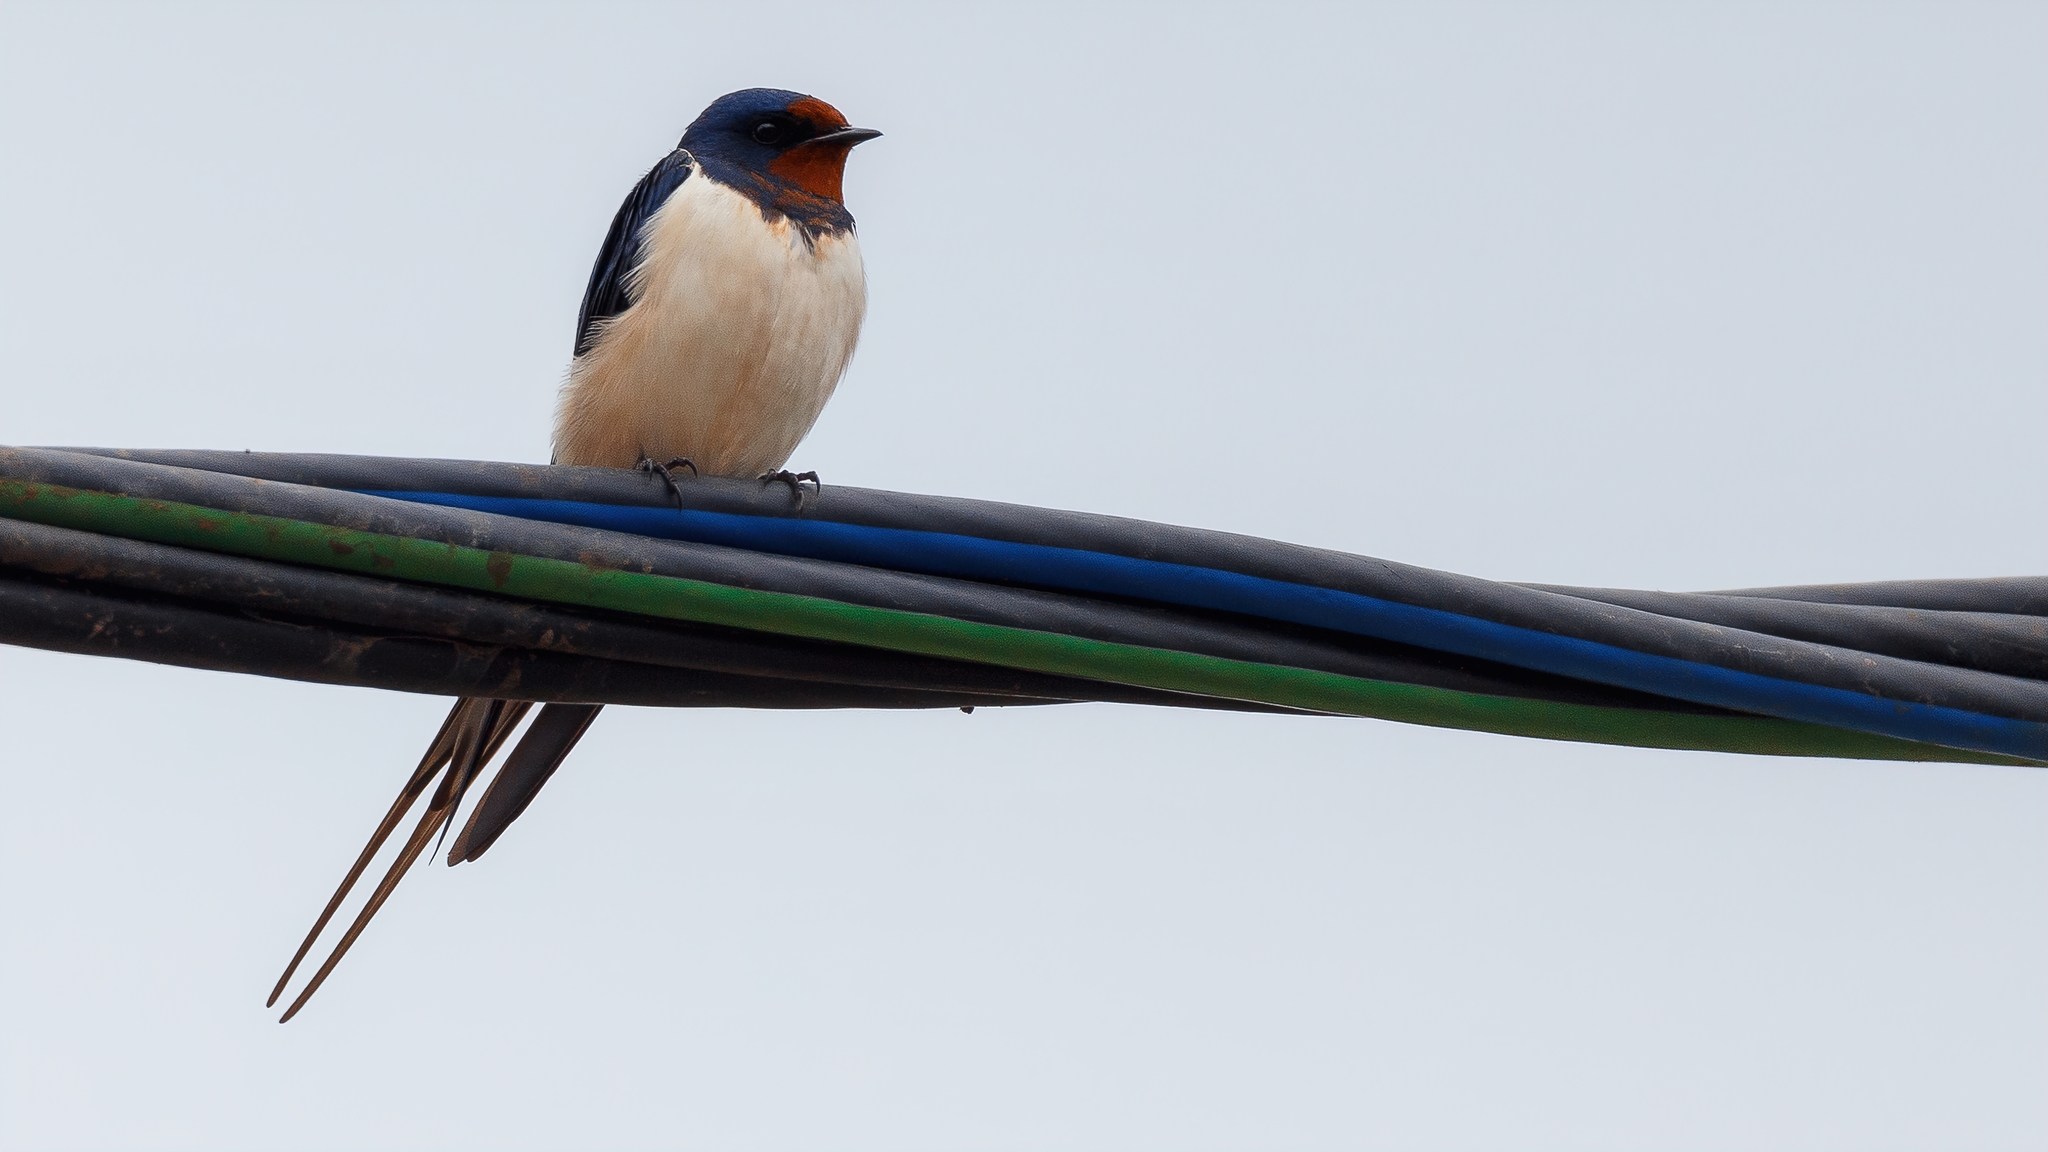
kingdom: Animalia
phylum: Chordata
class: Aves
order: Passeriformes
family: Hirundinidae
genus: Hirundo
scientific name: Hirundo rustica
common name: Barn swallow
